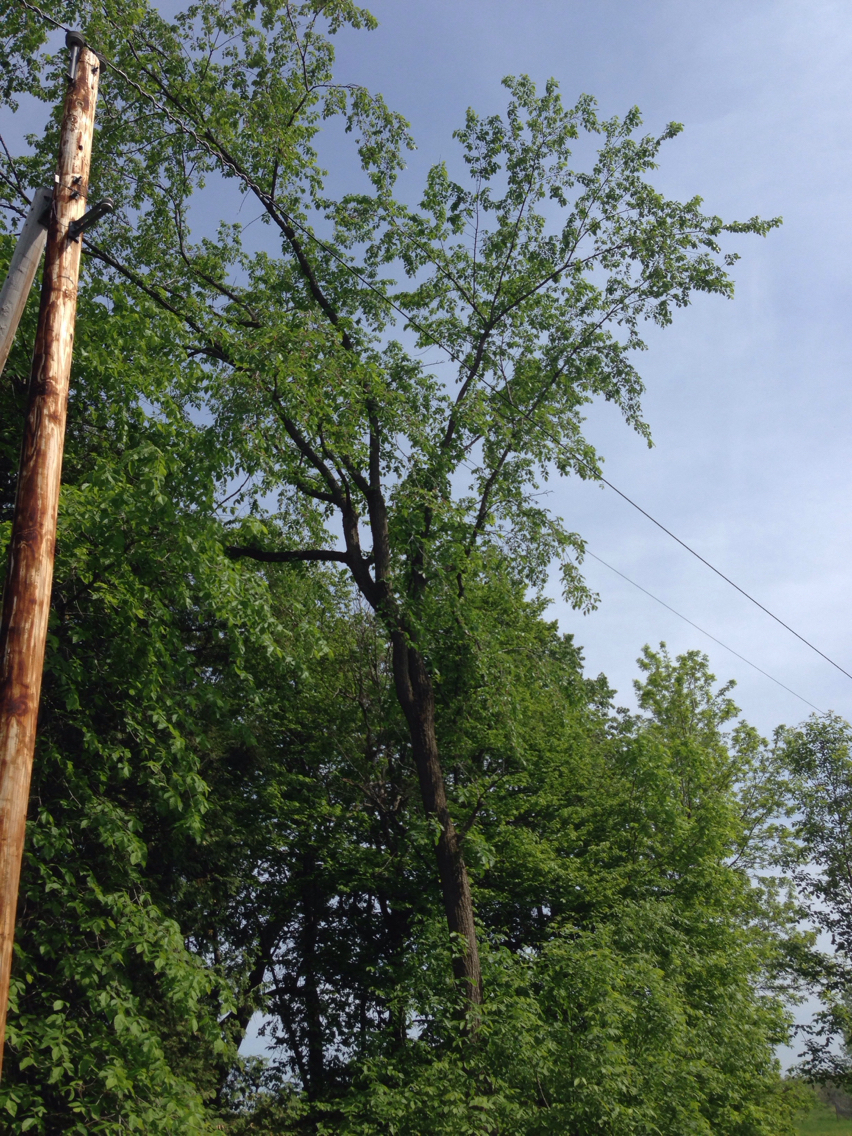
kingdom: Plantae
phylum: Tracheophyta
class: Magnoliopsida
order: Rosales
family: Ulmaceae
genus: Ulmus
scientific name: Ulmus americana
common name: American elm
